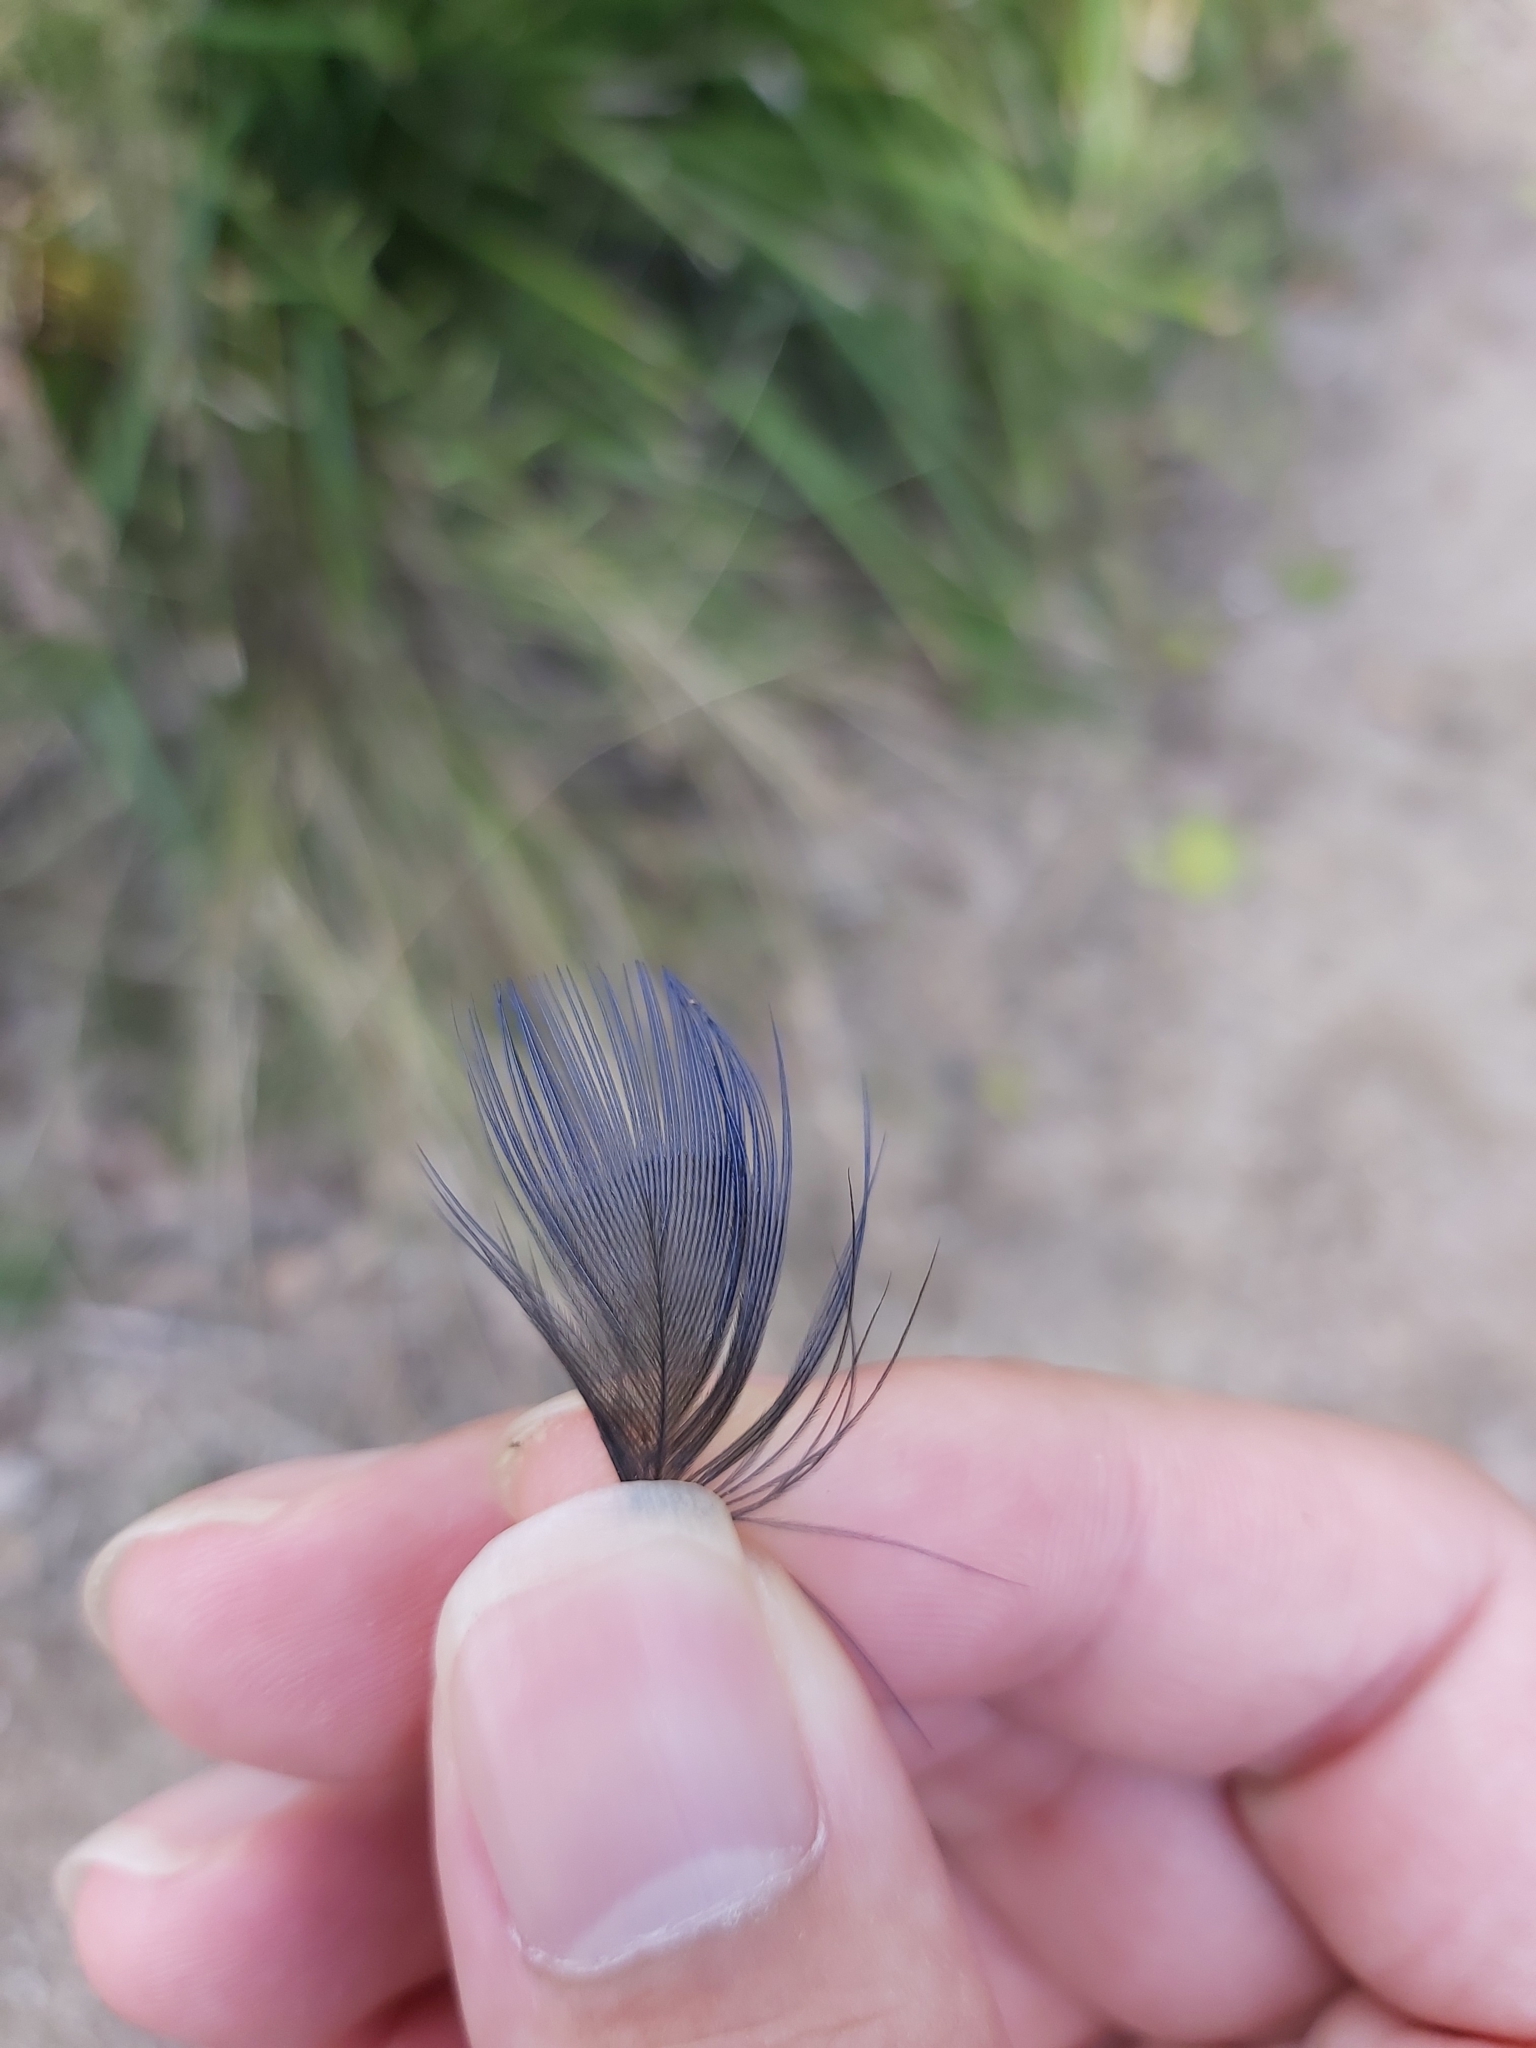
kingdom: Animalia
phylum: Chordata
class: Aves
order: Gruiformes
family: Rallidae
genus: Porphyrio
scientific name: Porphyrio melanotus
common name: Australasian swamphen
